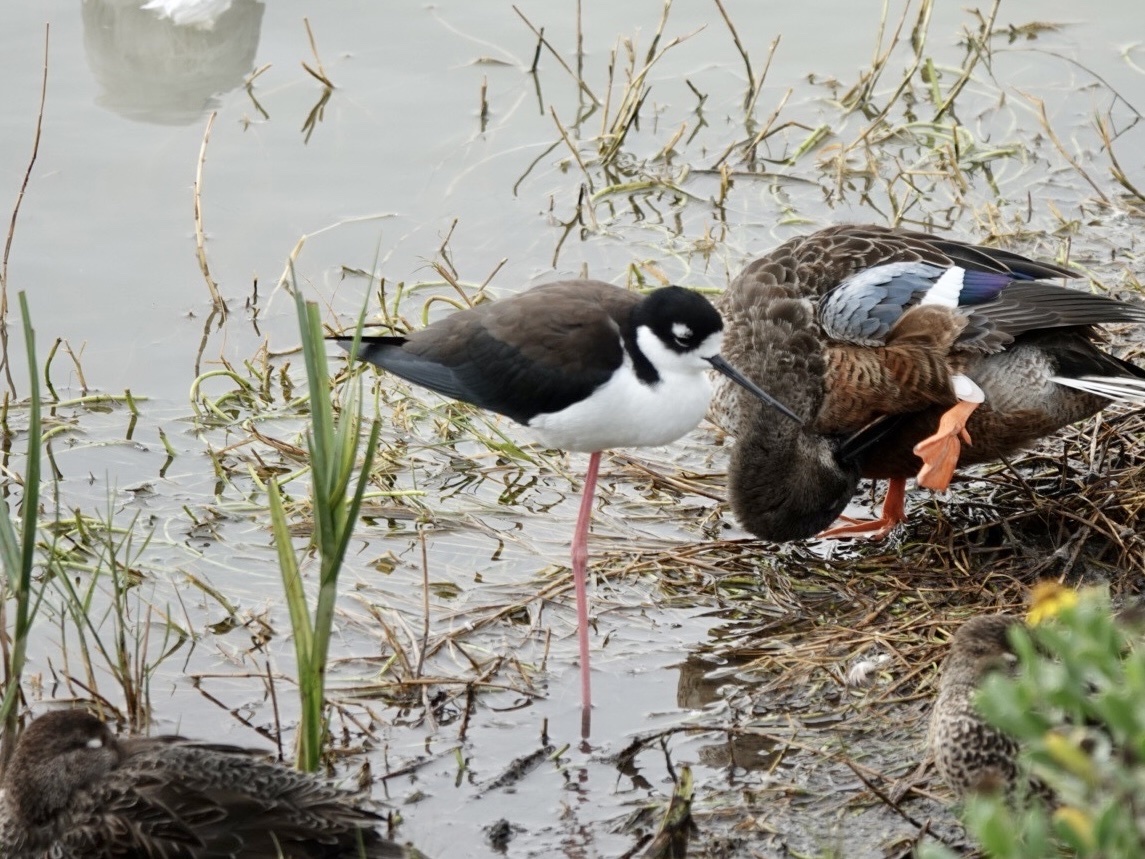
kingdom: Animalia
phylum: Chordata
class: Aves
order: Charadriiformes
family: Recurvirostridae
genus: Himantopus
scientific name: Himantopus mexicanus
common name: Black-necked stilt
